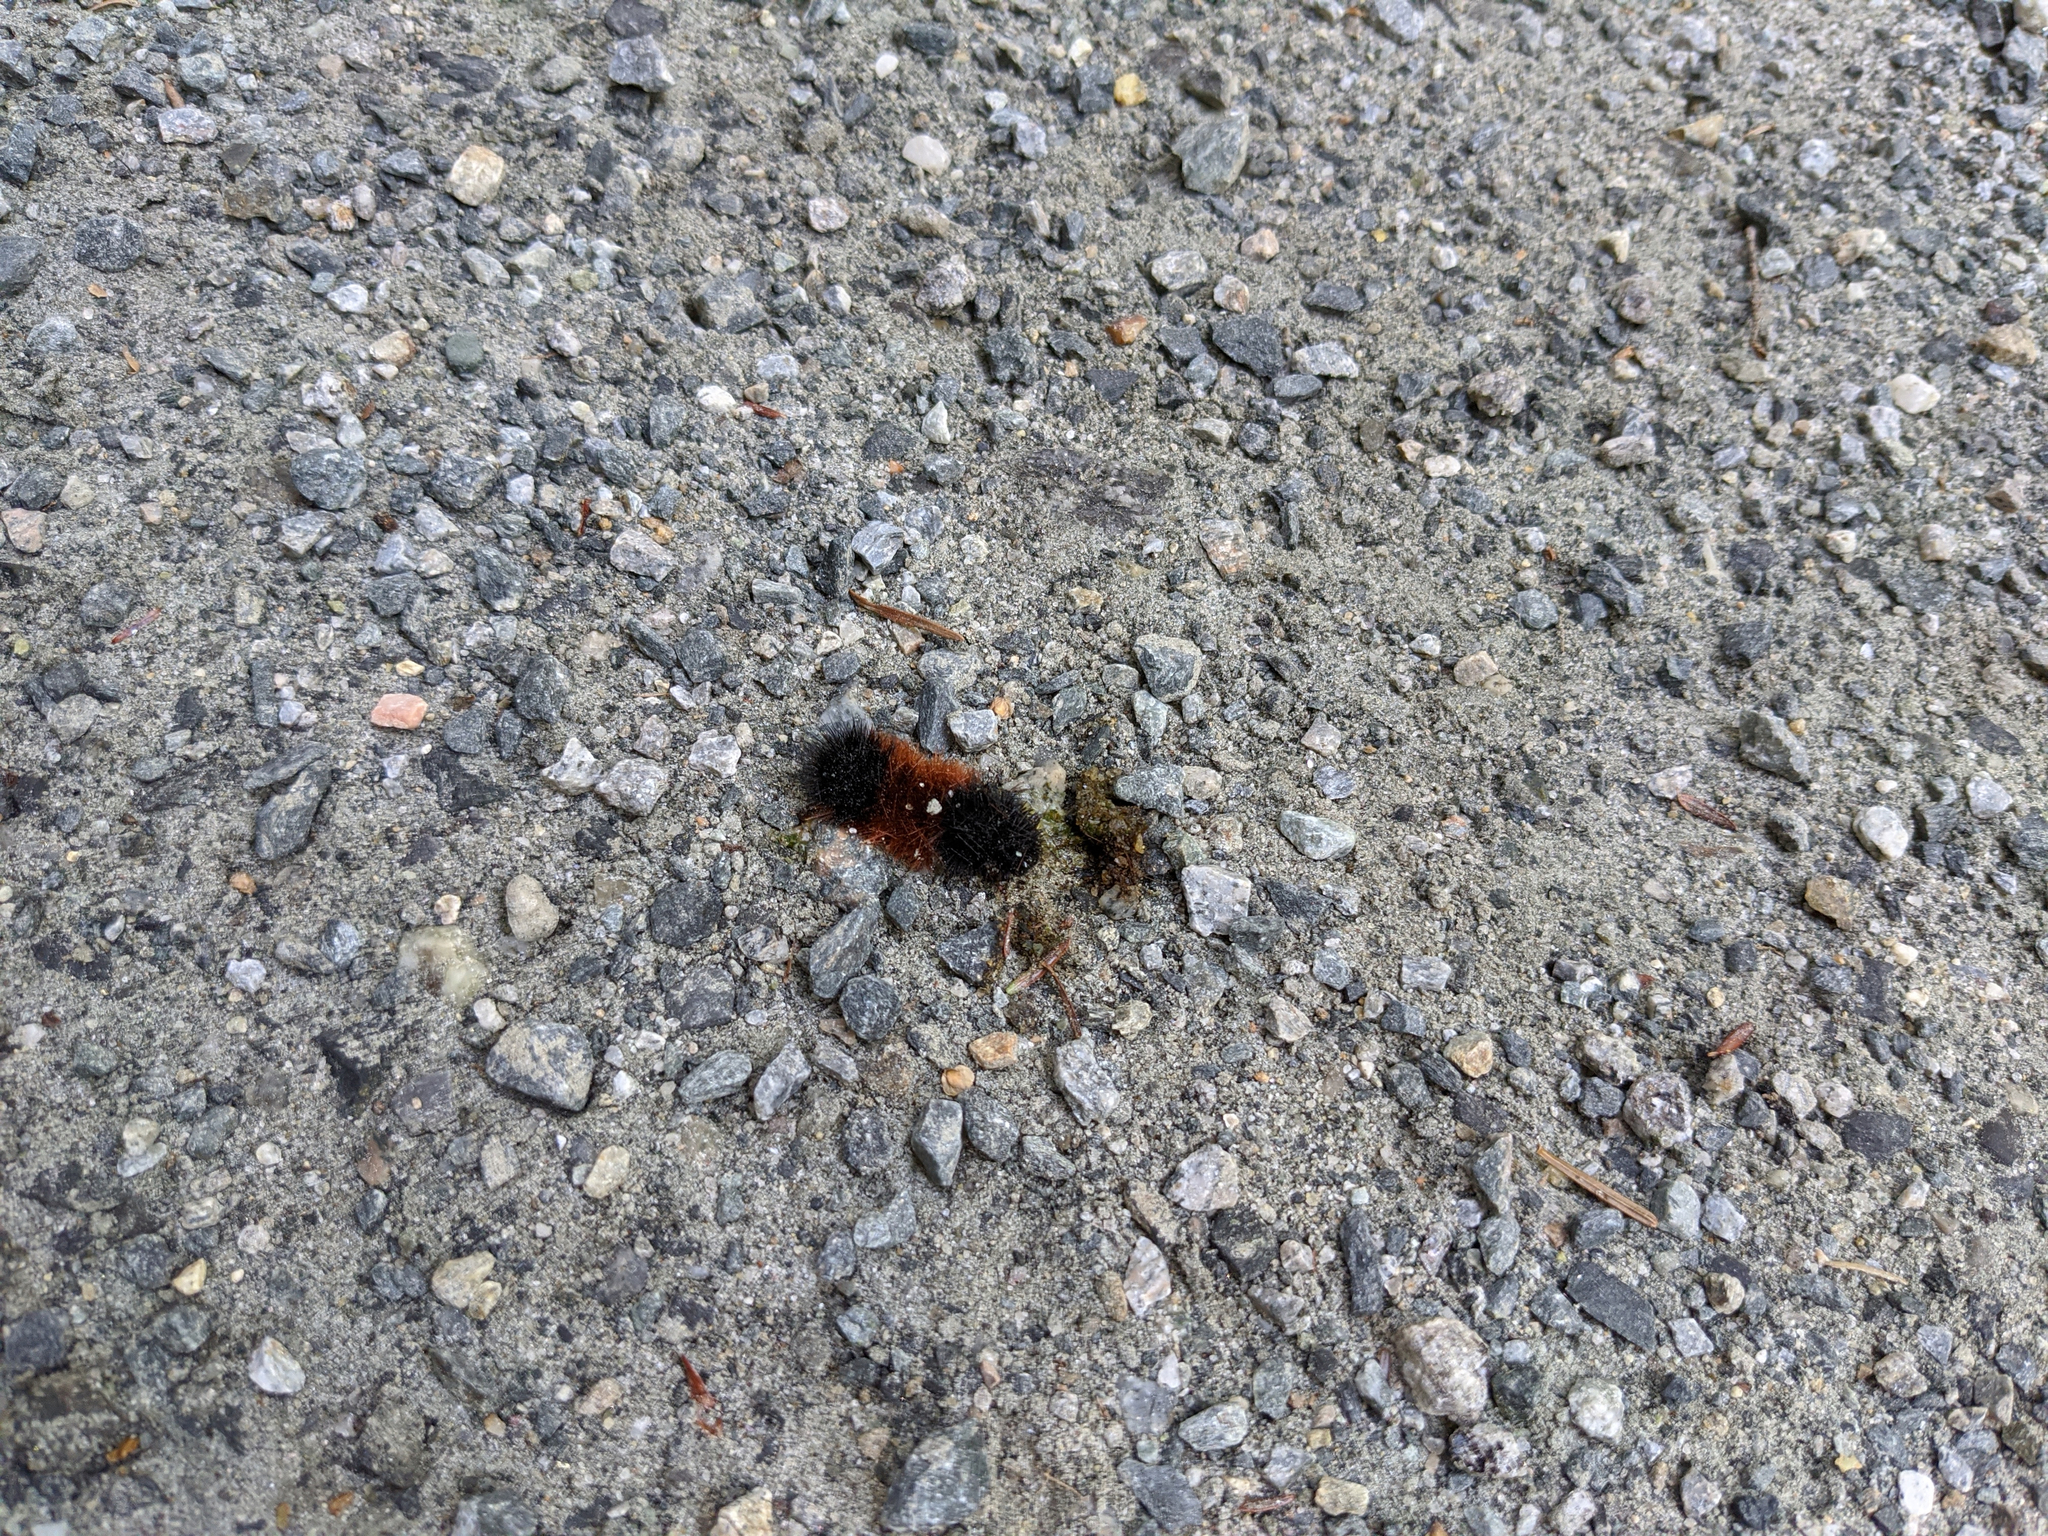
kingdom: Animalia
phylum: Arthropoda
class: Insecta
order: Lepidoptera
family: Erebidae
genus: Pyrrharctia
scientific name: Pyrrharctia isabella
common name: Isabella tiger moth
